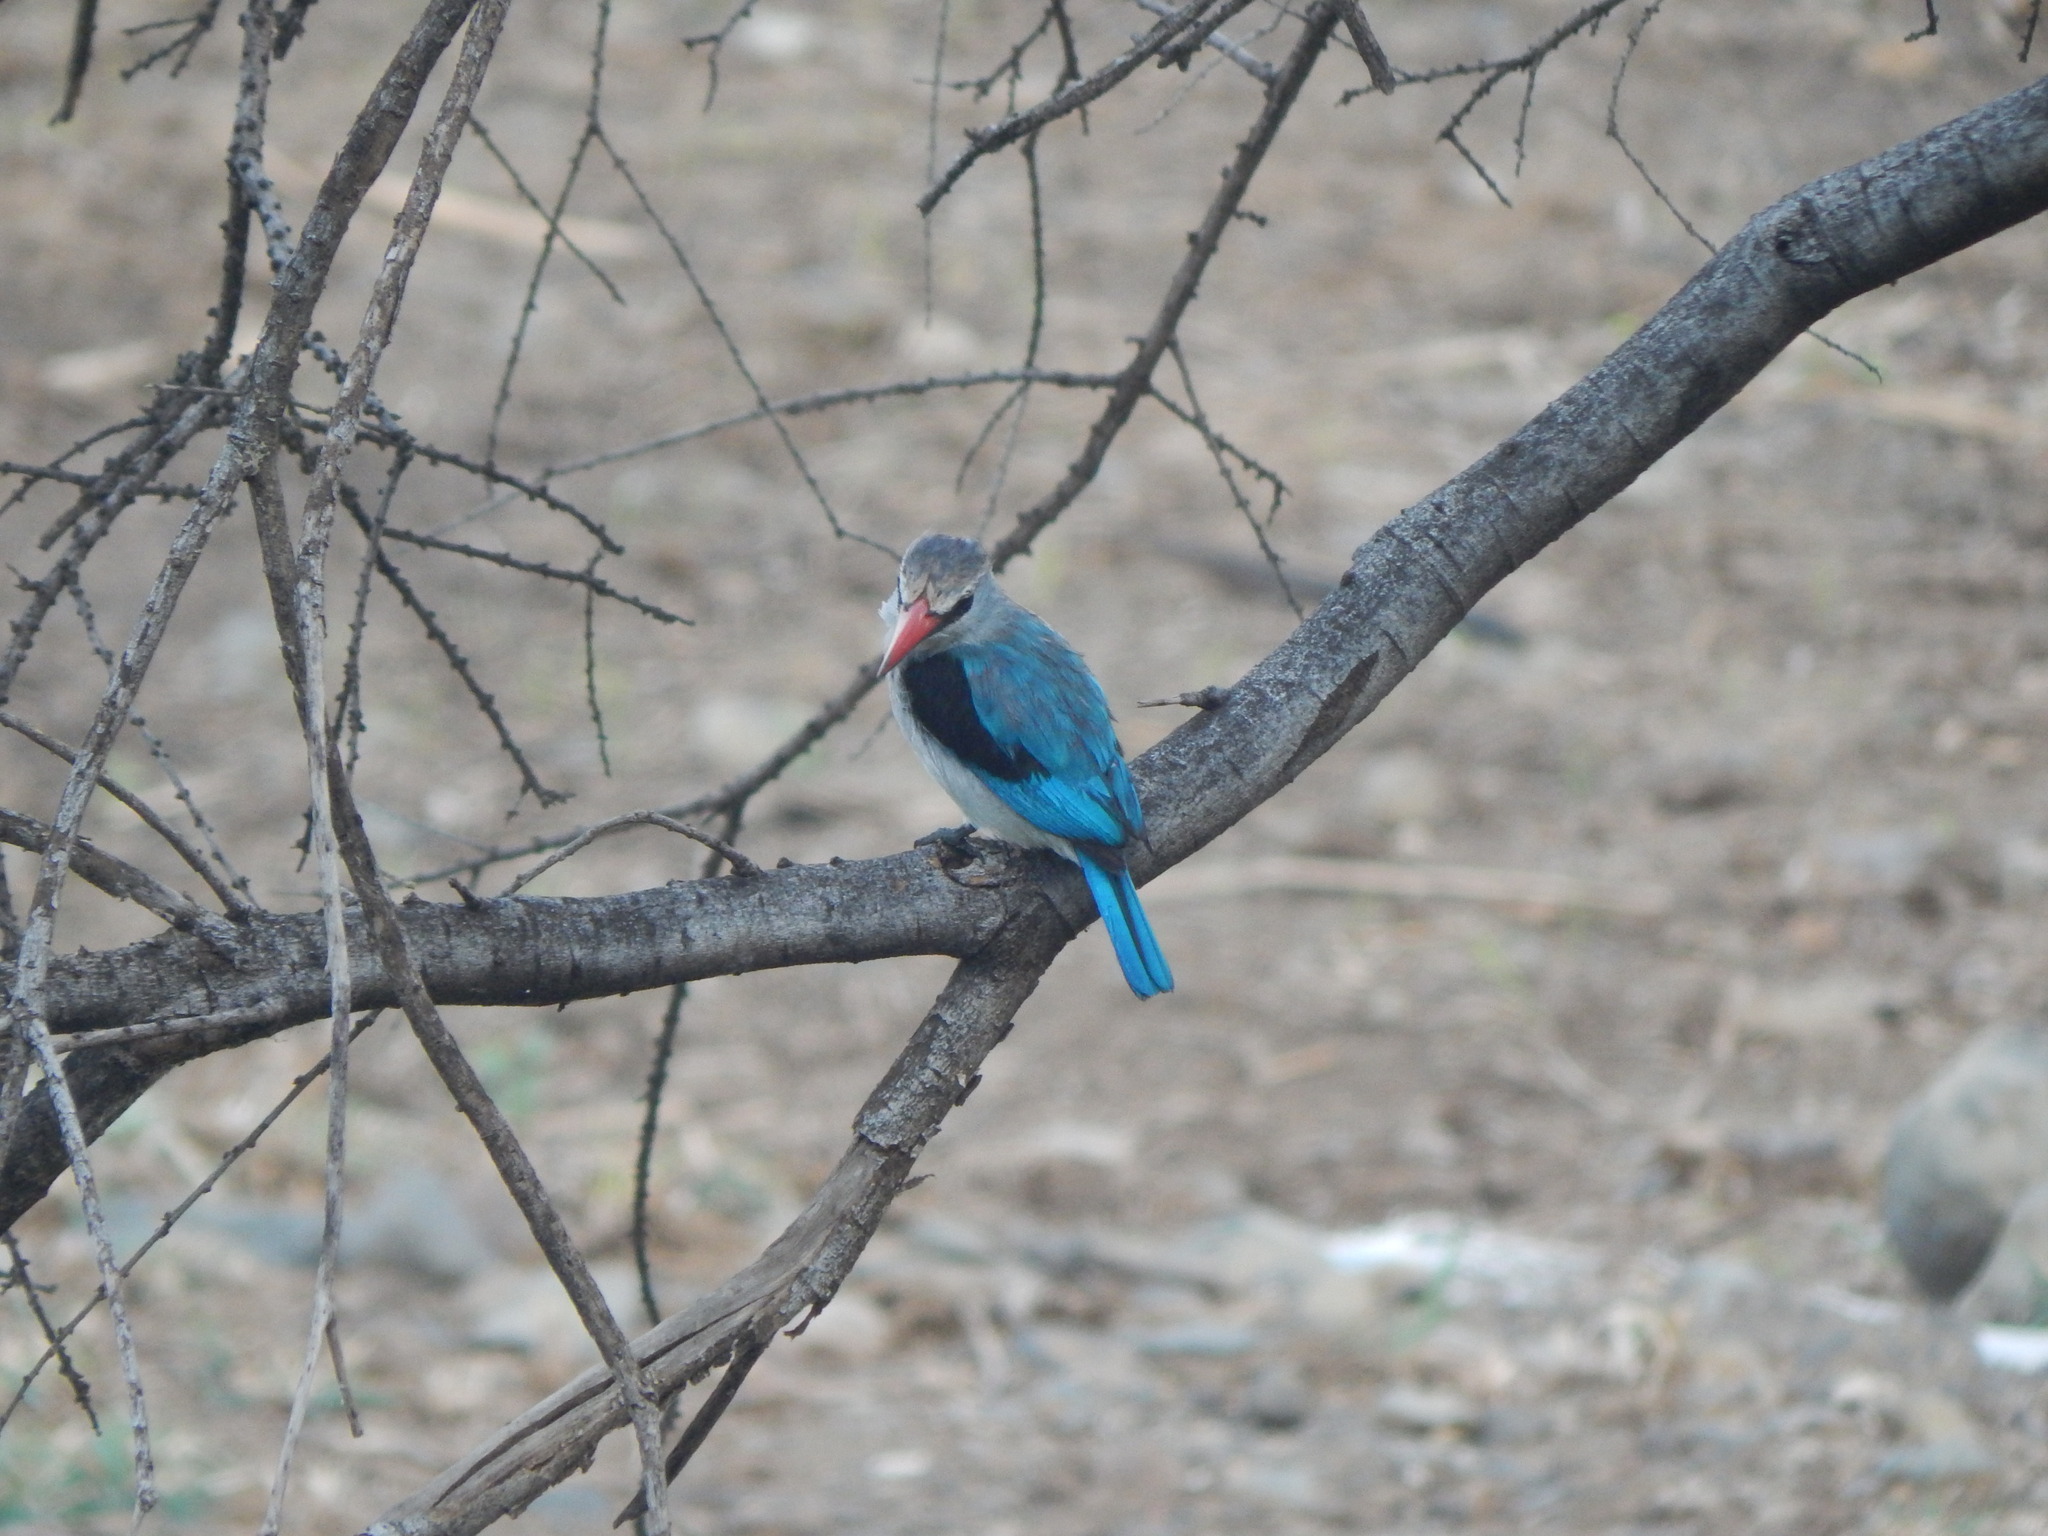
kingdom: Animalia
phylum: Chordata
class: Aves
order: Coraciiformes
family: Alcedinidae
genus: Halcyon
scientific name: Halcyon senegalensis
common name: Woodland kingfisher
